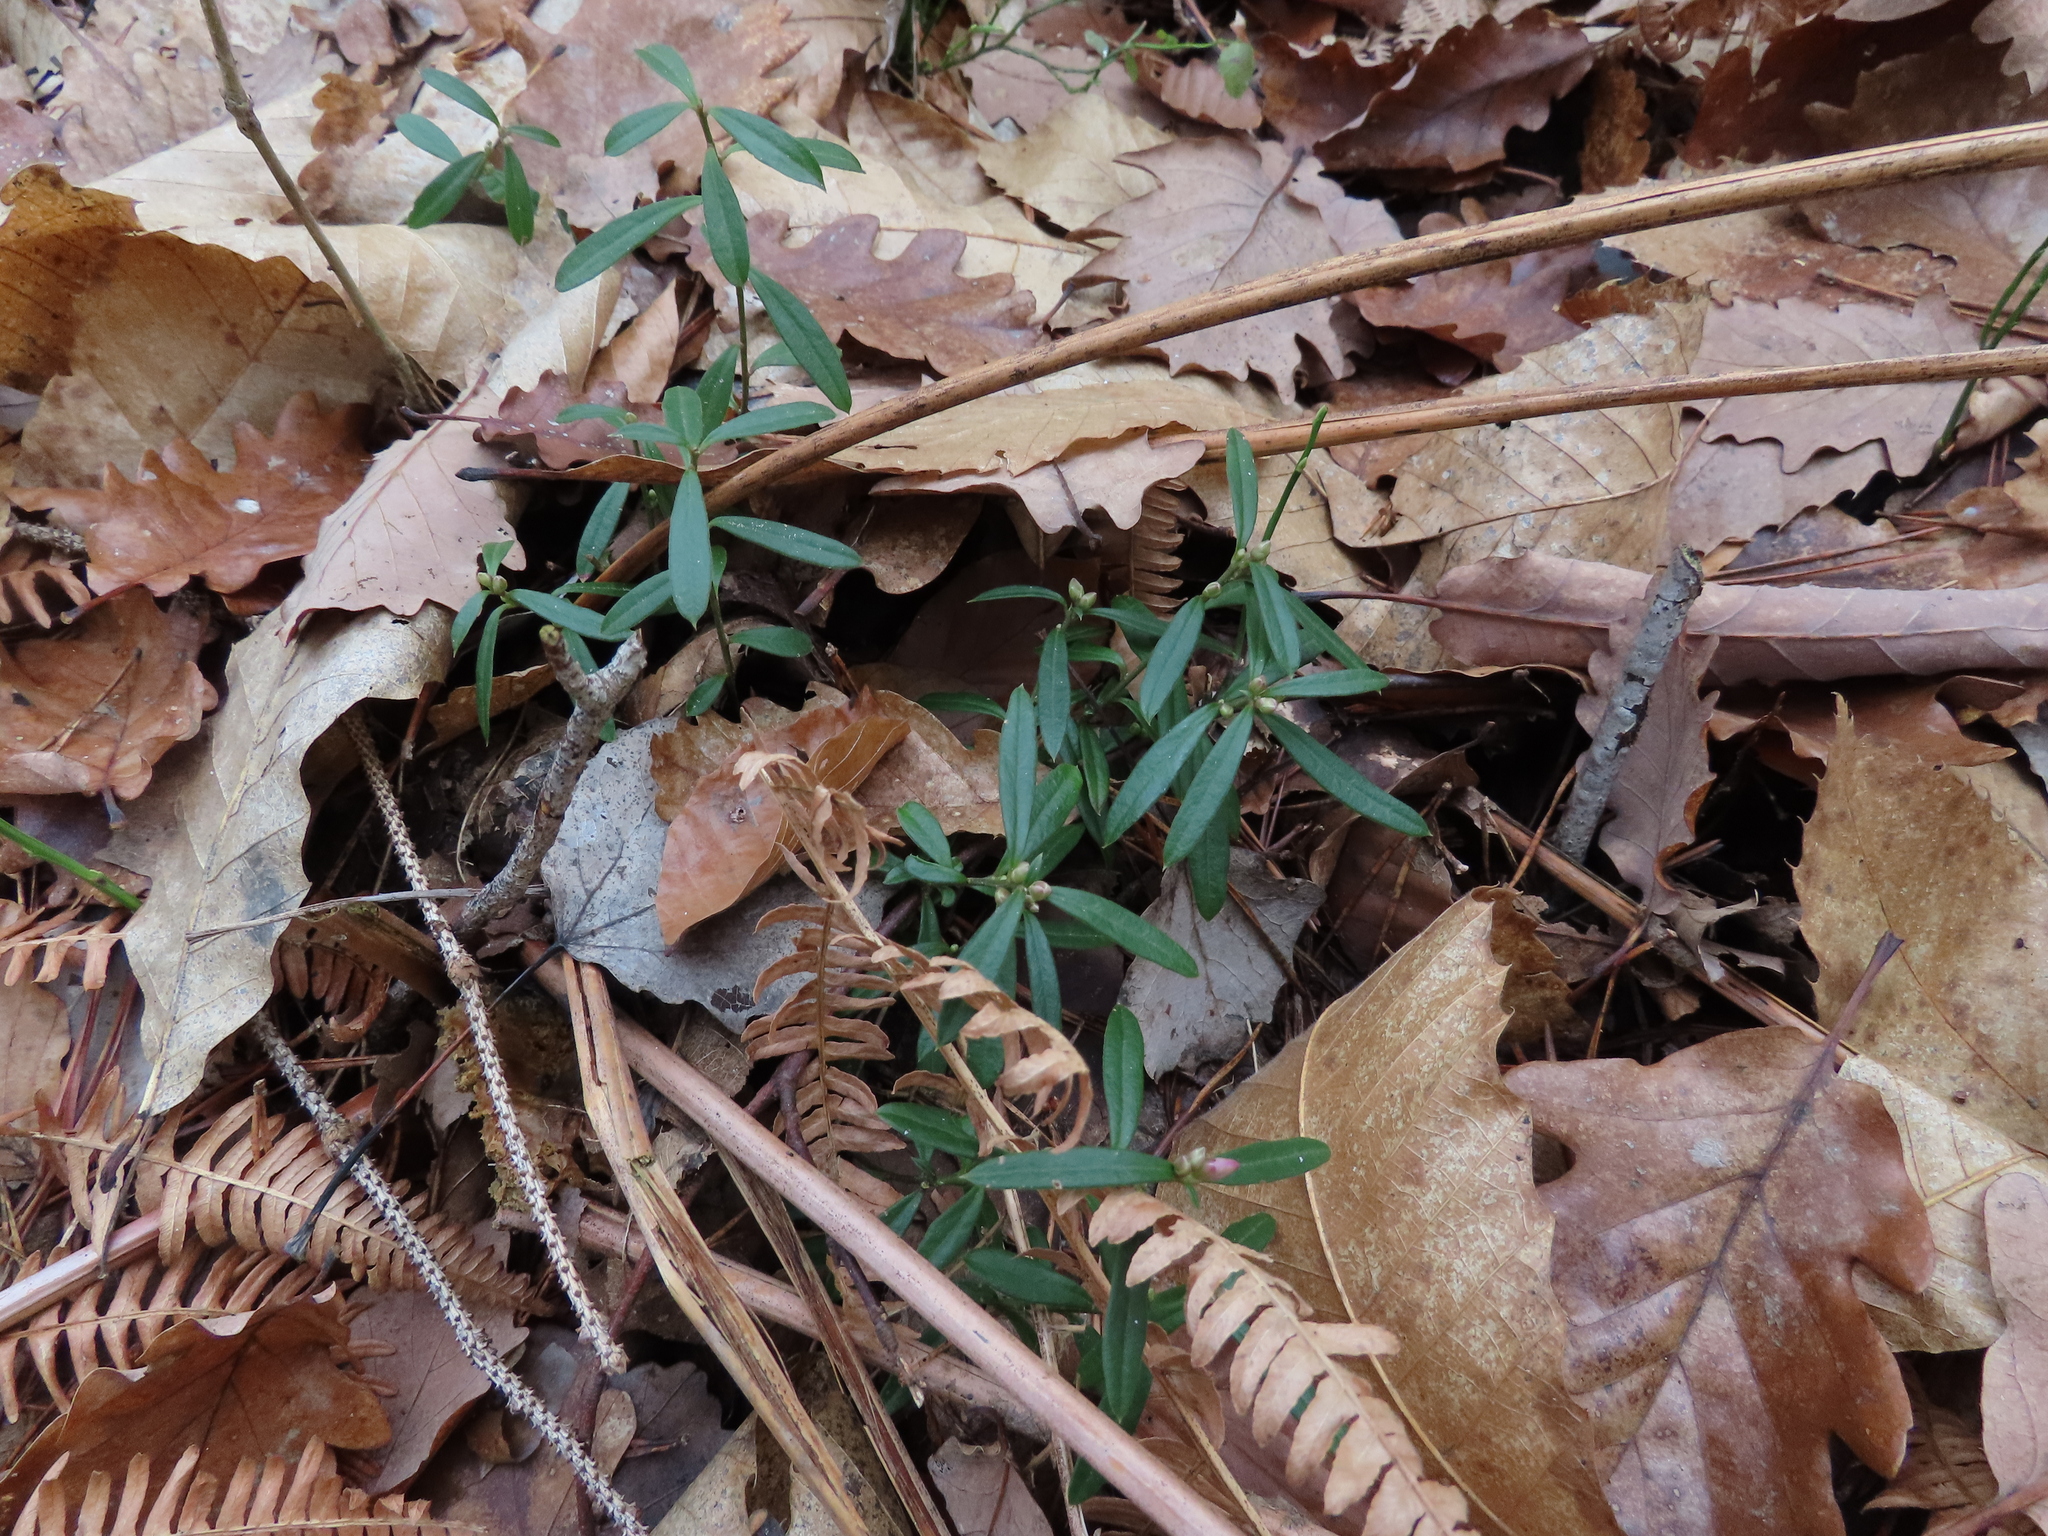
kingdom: Plantae
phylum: Tracheophyta
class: Magnoliopsida
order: Fabales
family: Polygalaceae
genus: Polygaloides
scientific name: Polygaloides chamaebuxus
